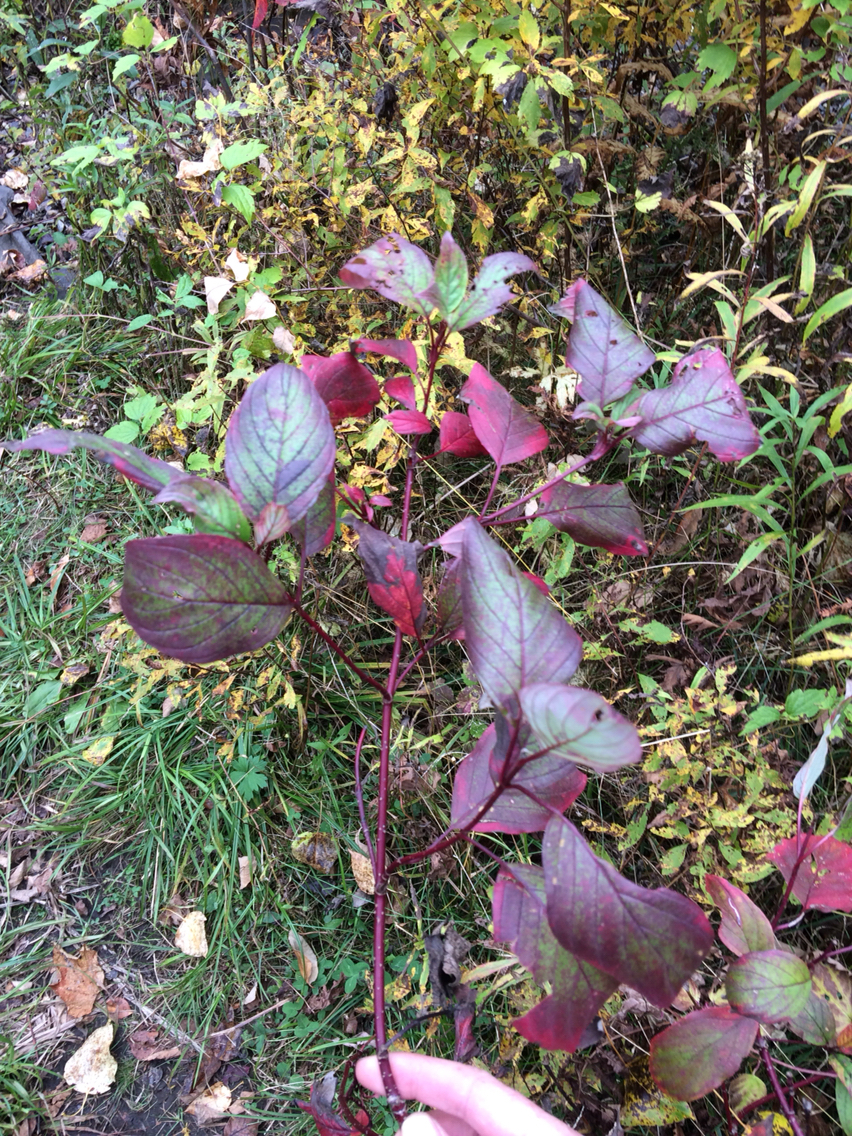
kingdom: Plantae
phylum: Tracheophyta
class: Magnoliopsida
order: Cornales
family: Cornaceae
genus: Cornus
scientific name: Cornus sericea
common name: Red-osier dogwood
